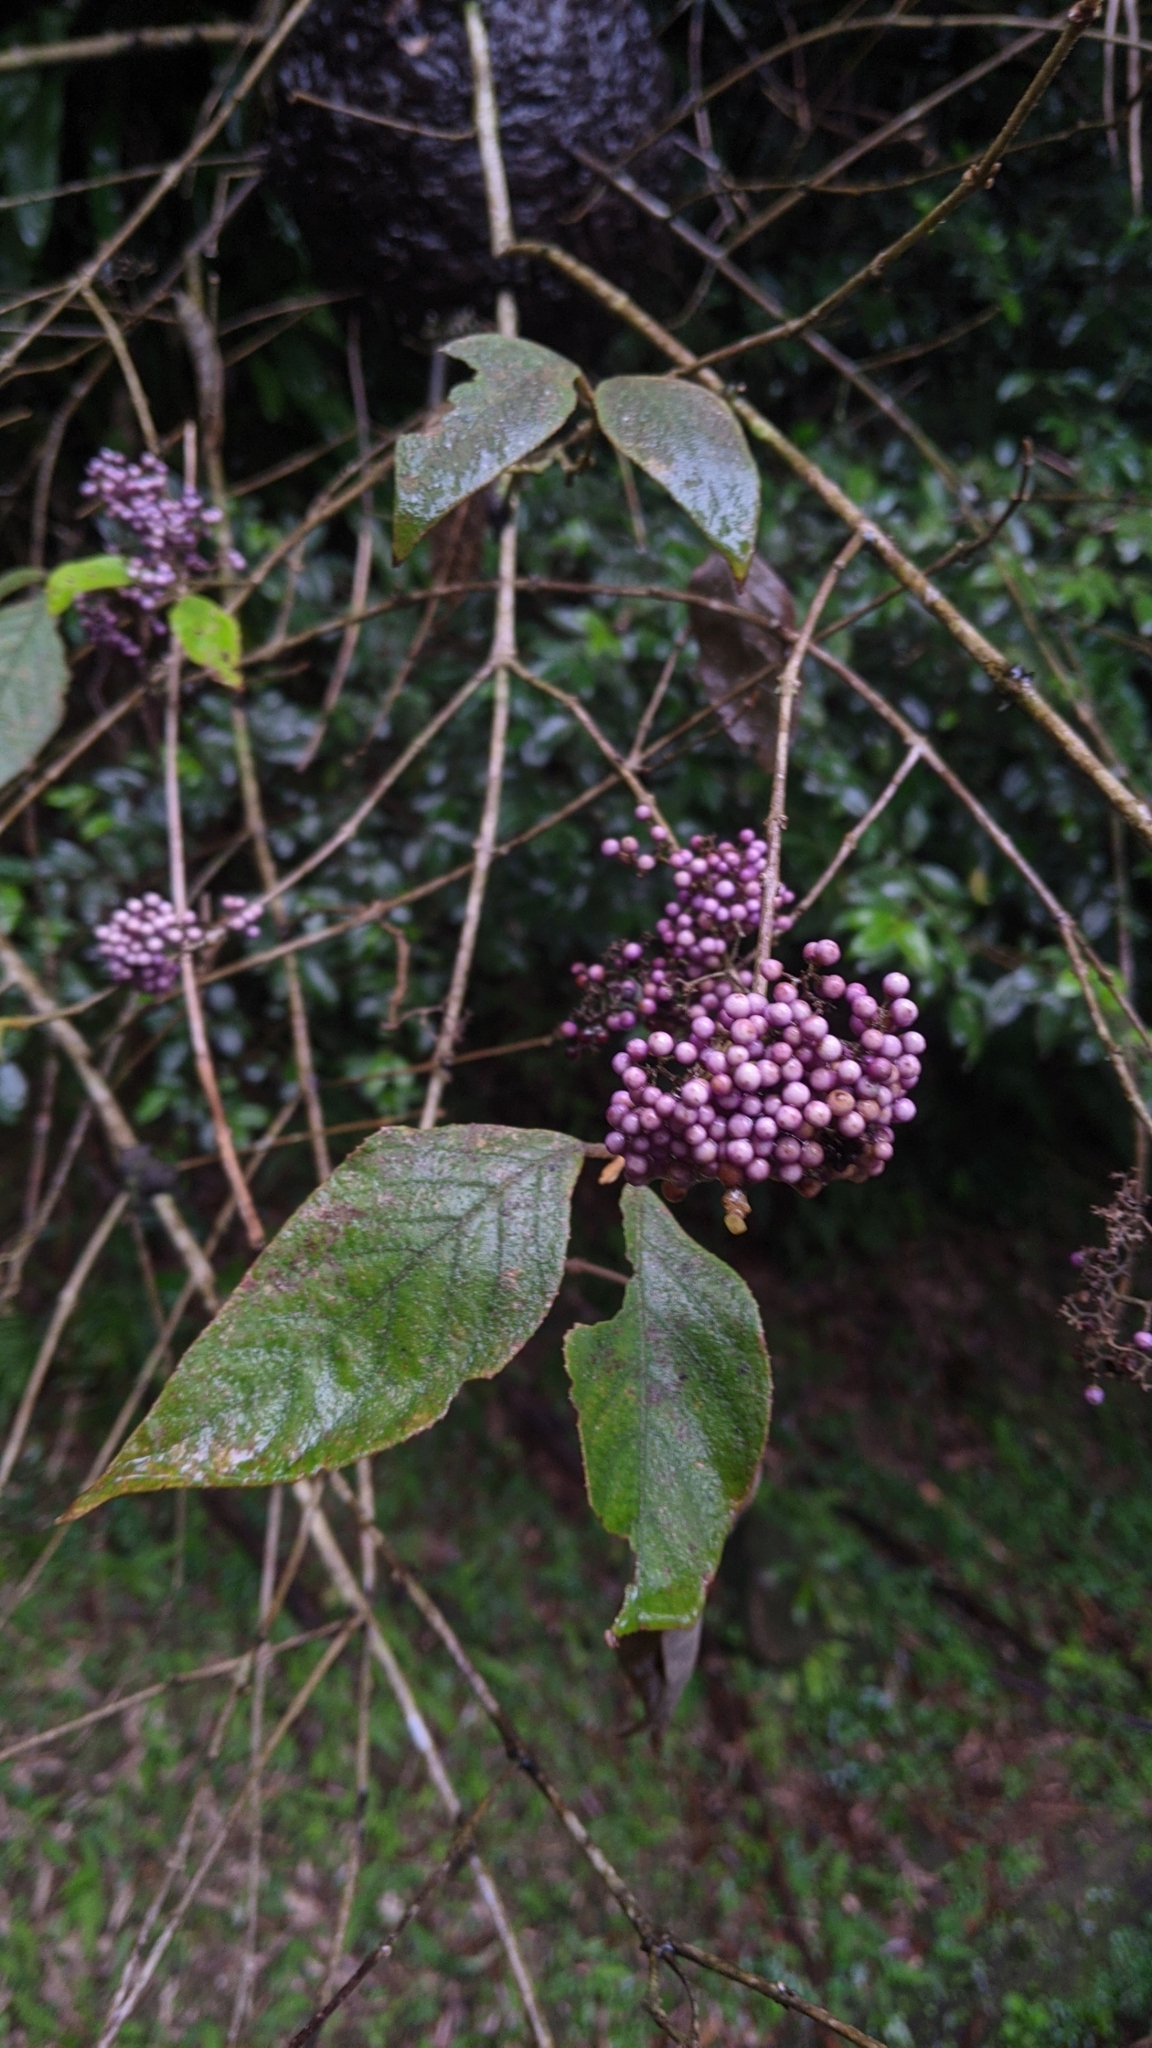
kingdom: Plantae
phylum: Tracheophyta
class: Magnoliopsida
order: Lamiales
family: Lamiaceae
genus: Callicarpa
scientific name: Callicarpa pedunculata
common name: Velvetleaf
